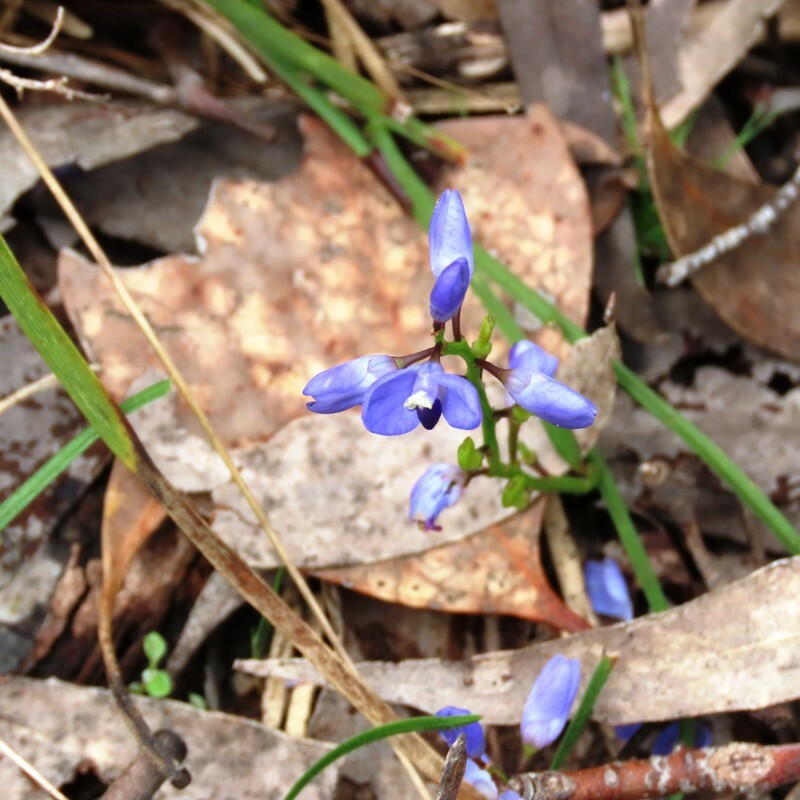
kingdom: Plantae
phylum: Tracheophyta
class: Magnoliopsida
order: Fabales
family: Polygalaceae
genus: Comesperma
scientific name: Comesperma volubile
